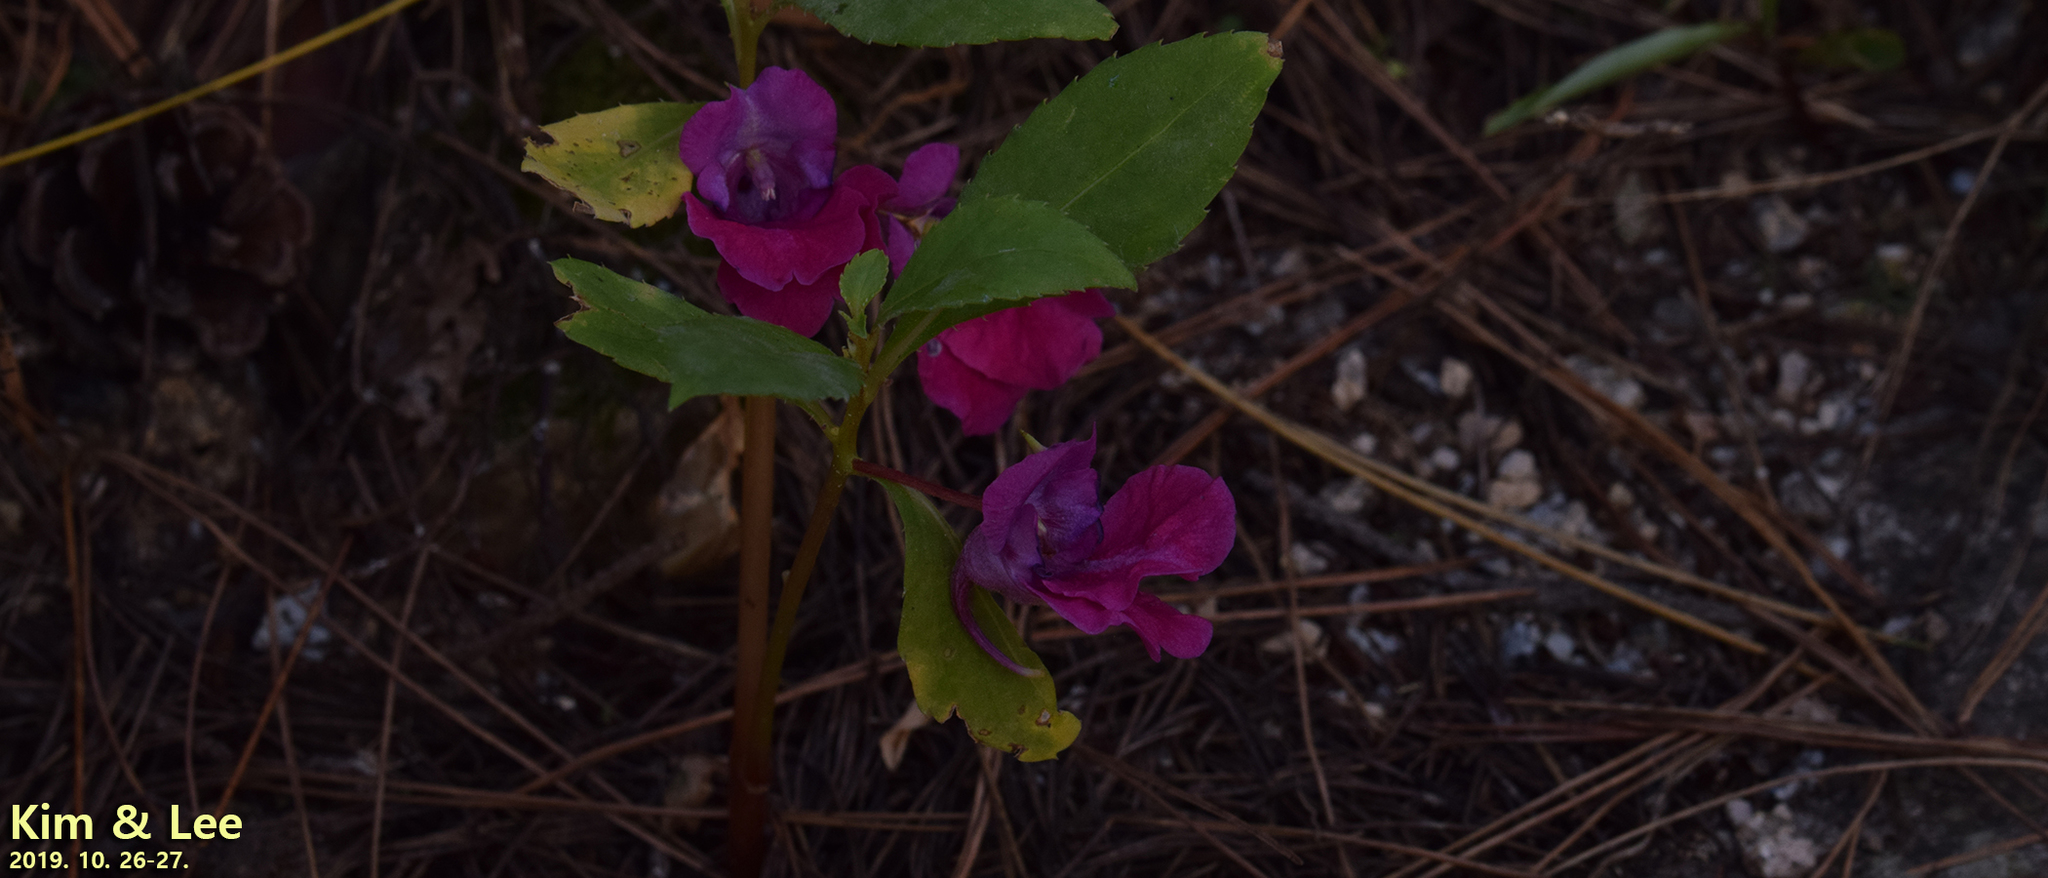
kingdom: Plantae
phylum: Tracheophyta
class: Magnoliopsida
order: Ericales
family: Balsaminaceae
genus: Impatiens
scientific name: Impatiens balsamina
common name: Balsam
